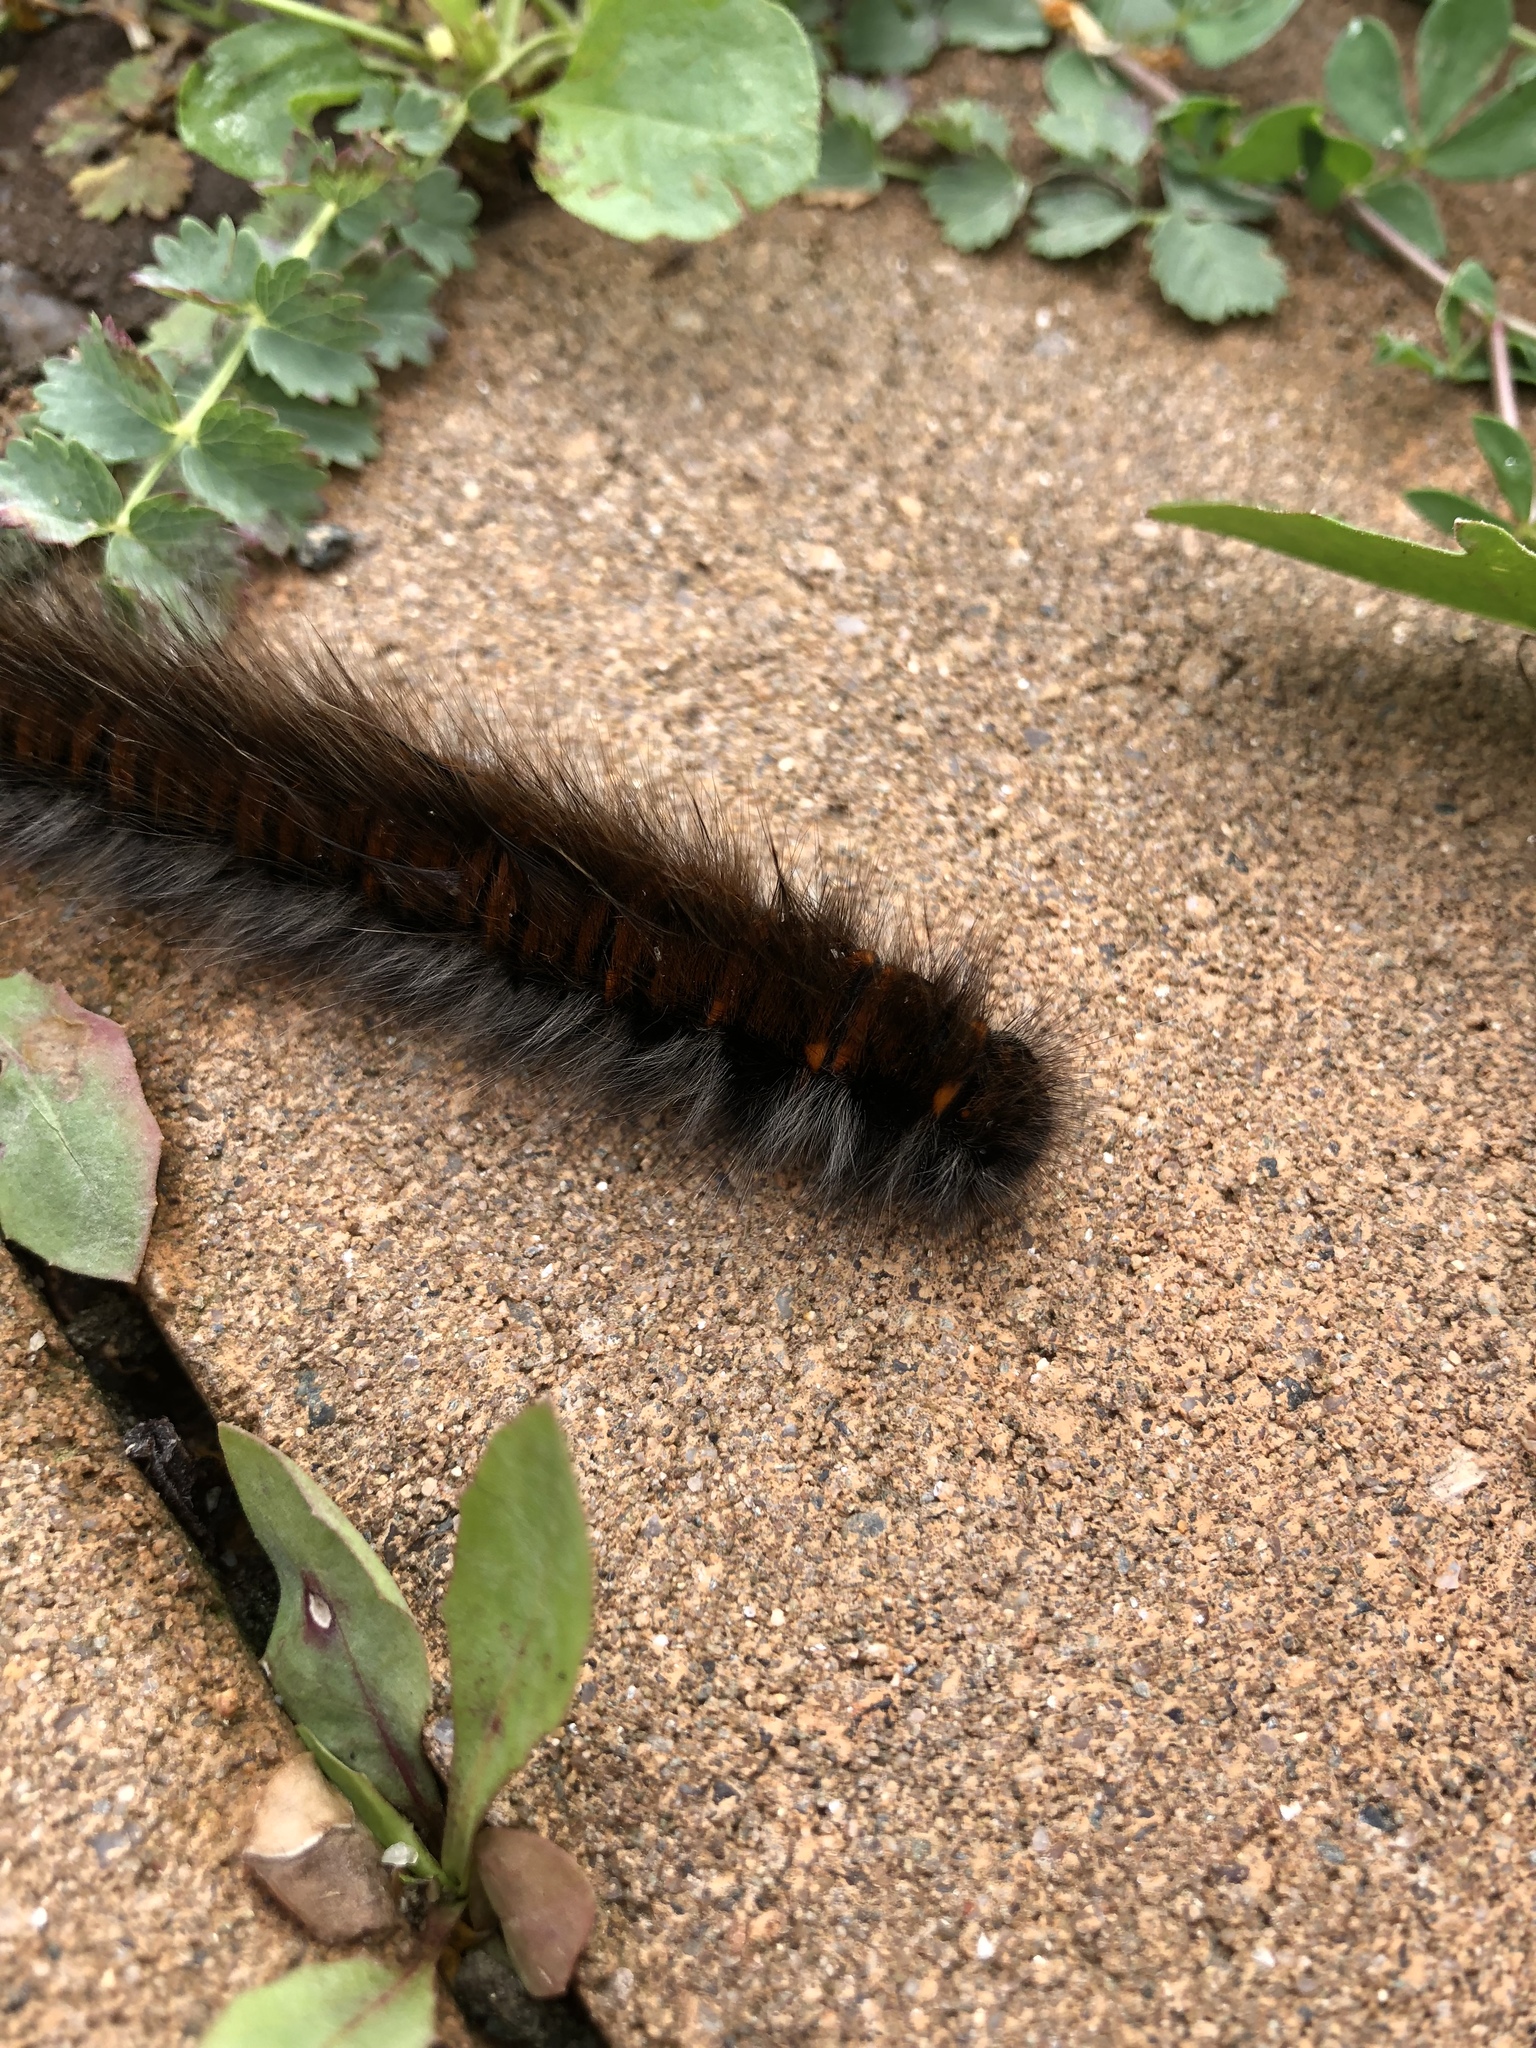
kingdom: Animalia
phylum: Arthropoda
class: Insecta
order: Lepidoptera
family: Lasiocampidae
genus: Macrothylacia
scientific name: Macrothylacia rubi
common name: Fox moth
